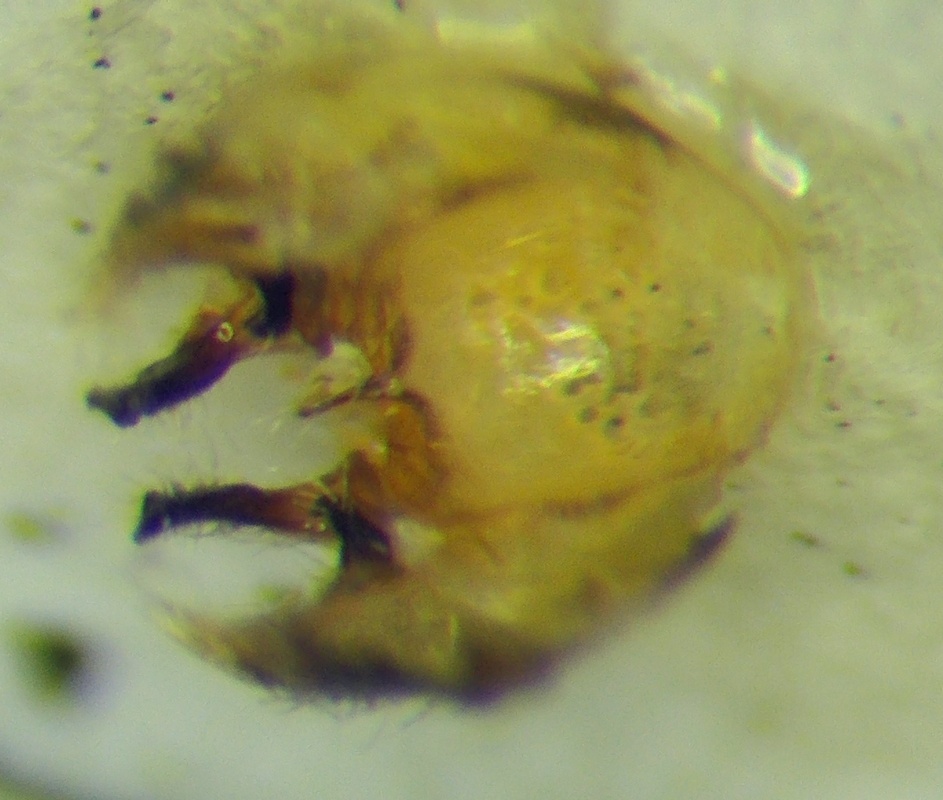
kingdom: Animalia
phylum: Arthropoda
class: Insecta
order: Hemiptera
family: Rhopalidae
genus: Stictopleurus
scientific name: Stictopleurus abutilon
